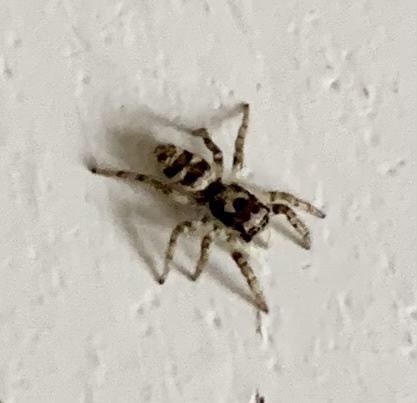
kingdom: Animalia
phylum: Arthropoda
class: Arachnida
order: Araneae
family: Salticidae
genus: Salticus
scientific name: Salticus scenicus
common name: Zebra jumper
